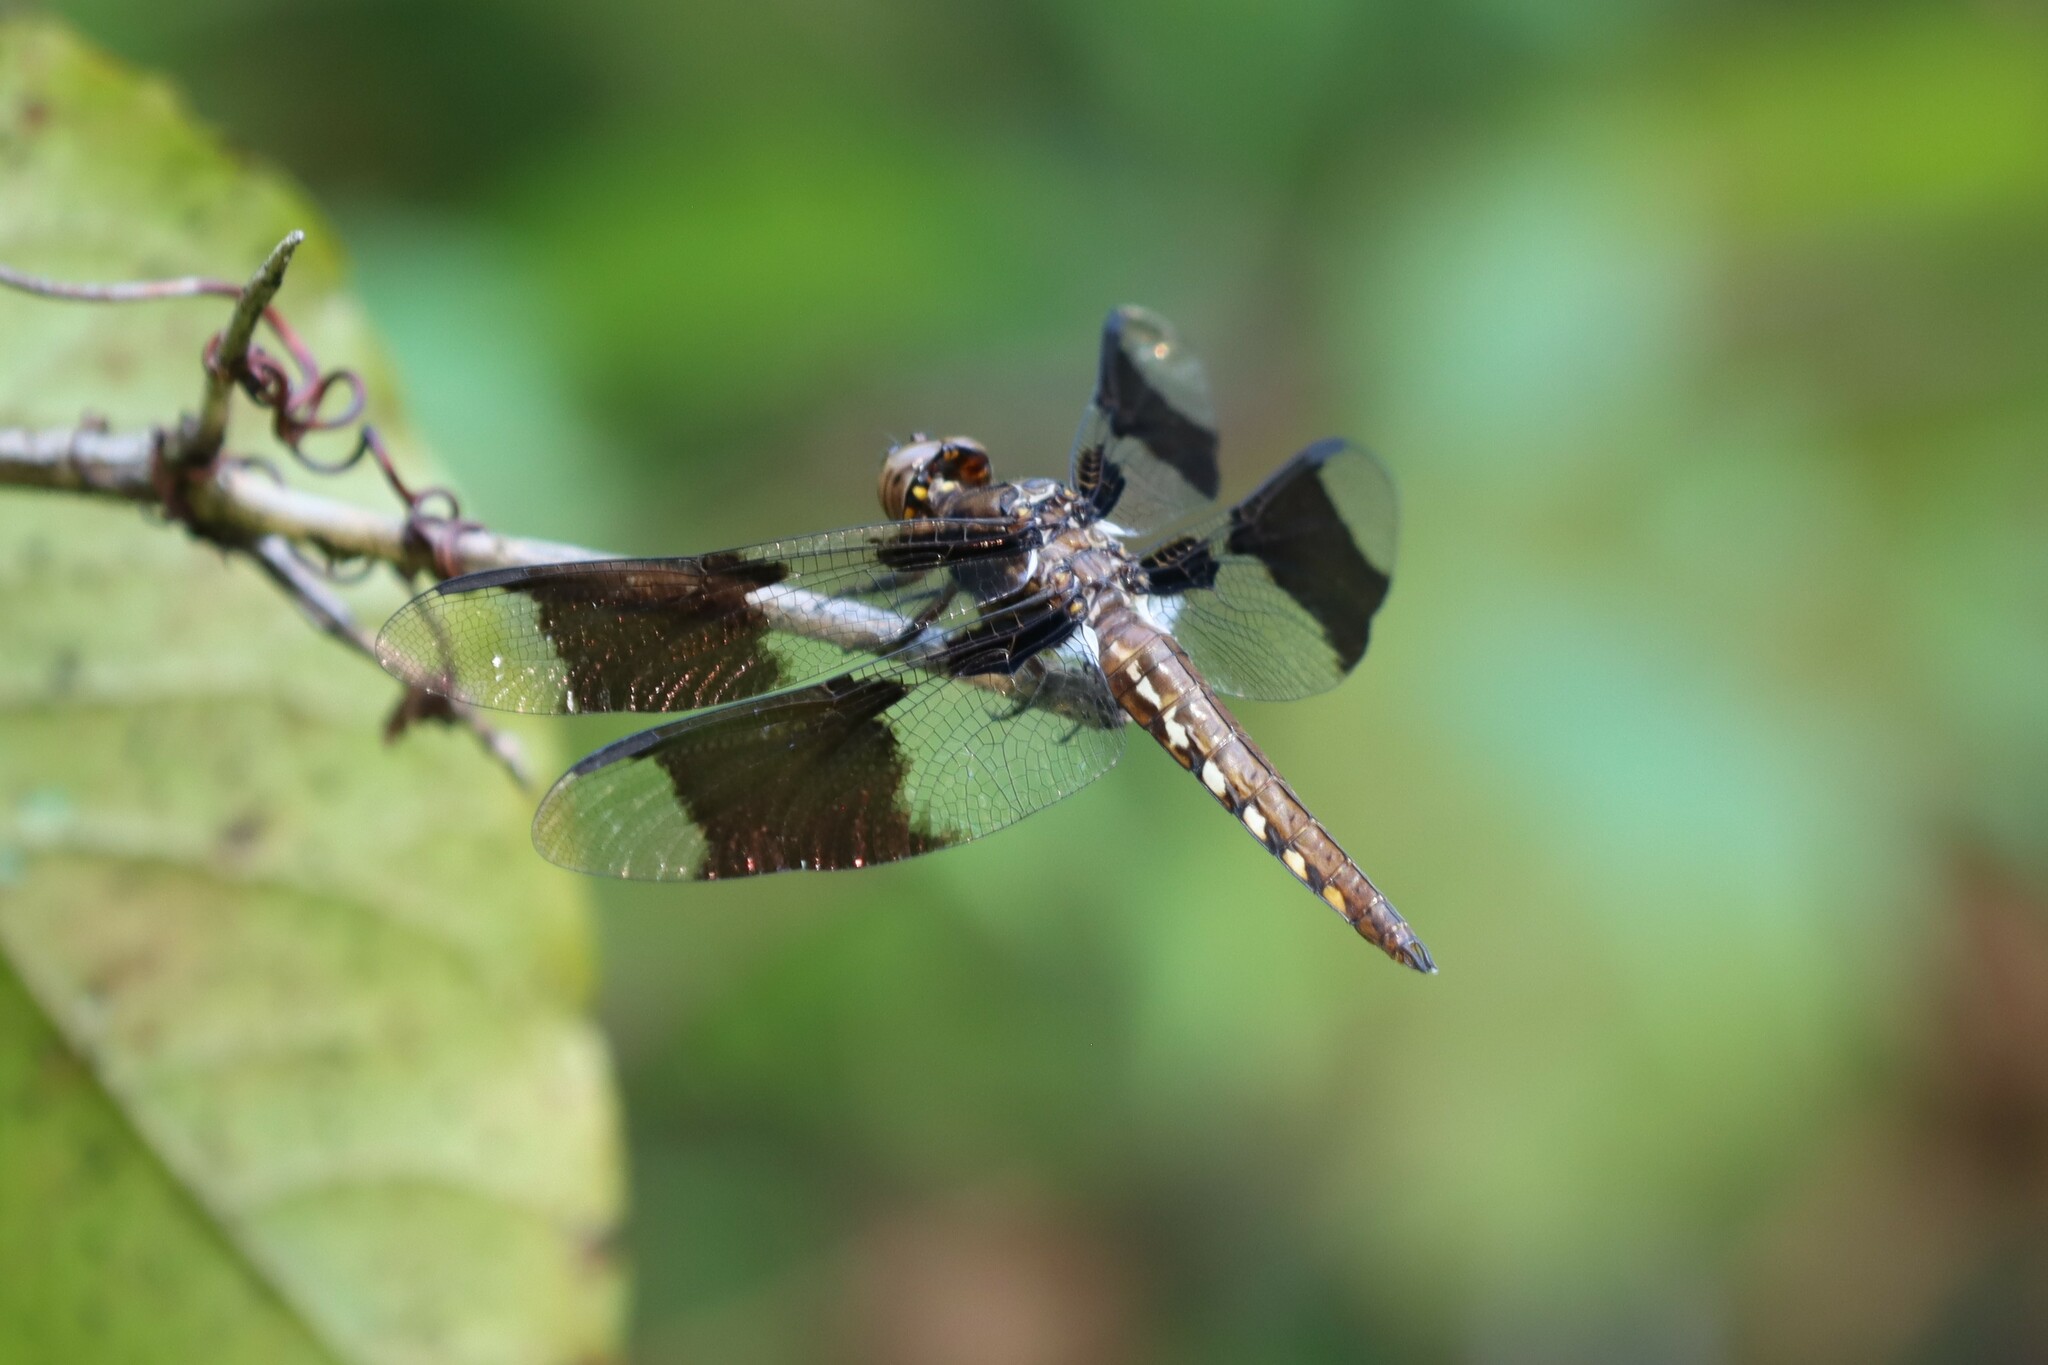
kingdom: Animalia
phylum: Arthropoda
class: Insecta
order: Odonata
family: Libellulidae
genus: Plathemis
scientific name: Plathemis lydia
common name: Common whitetail
